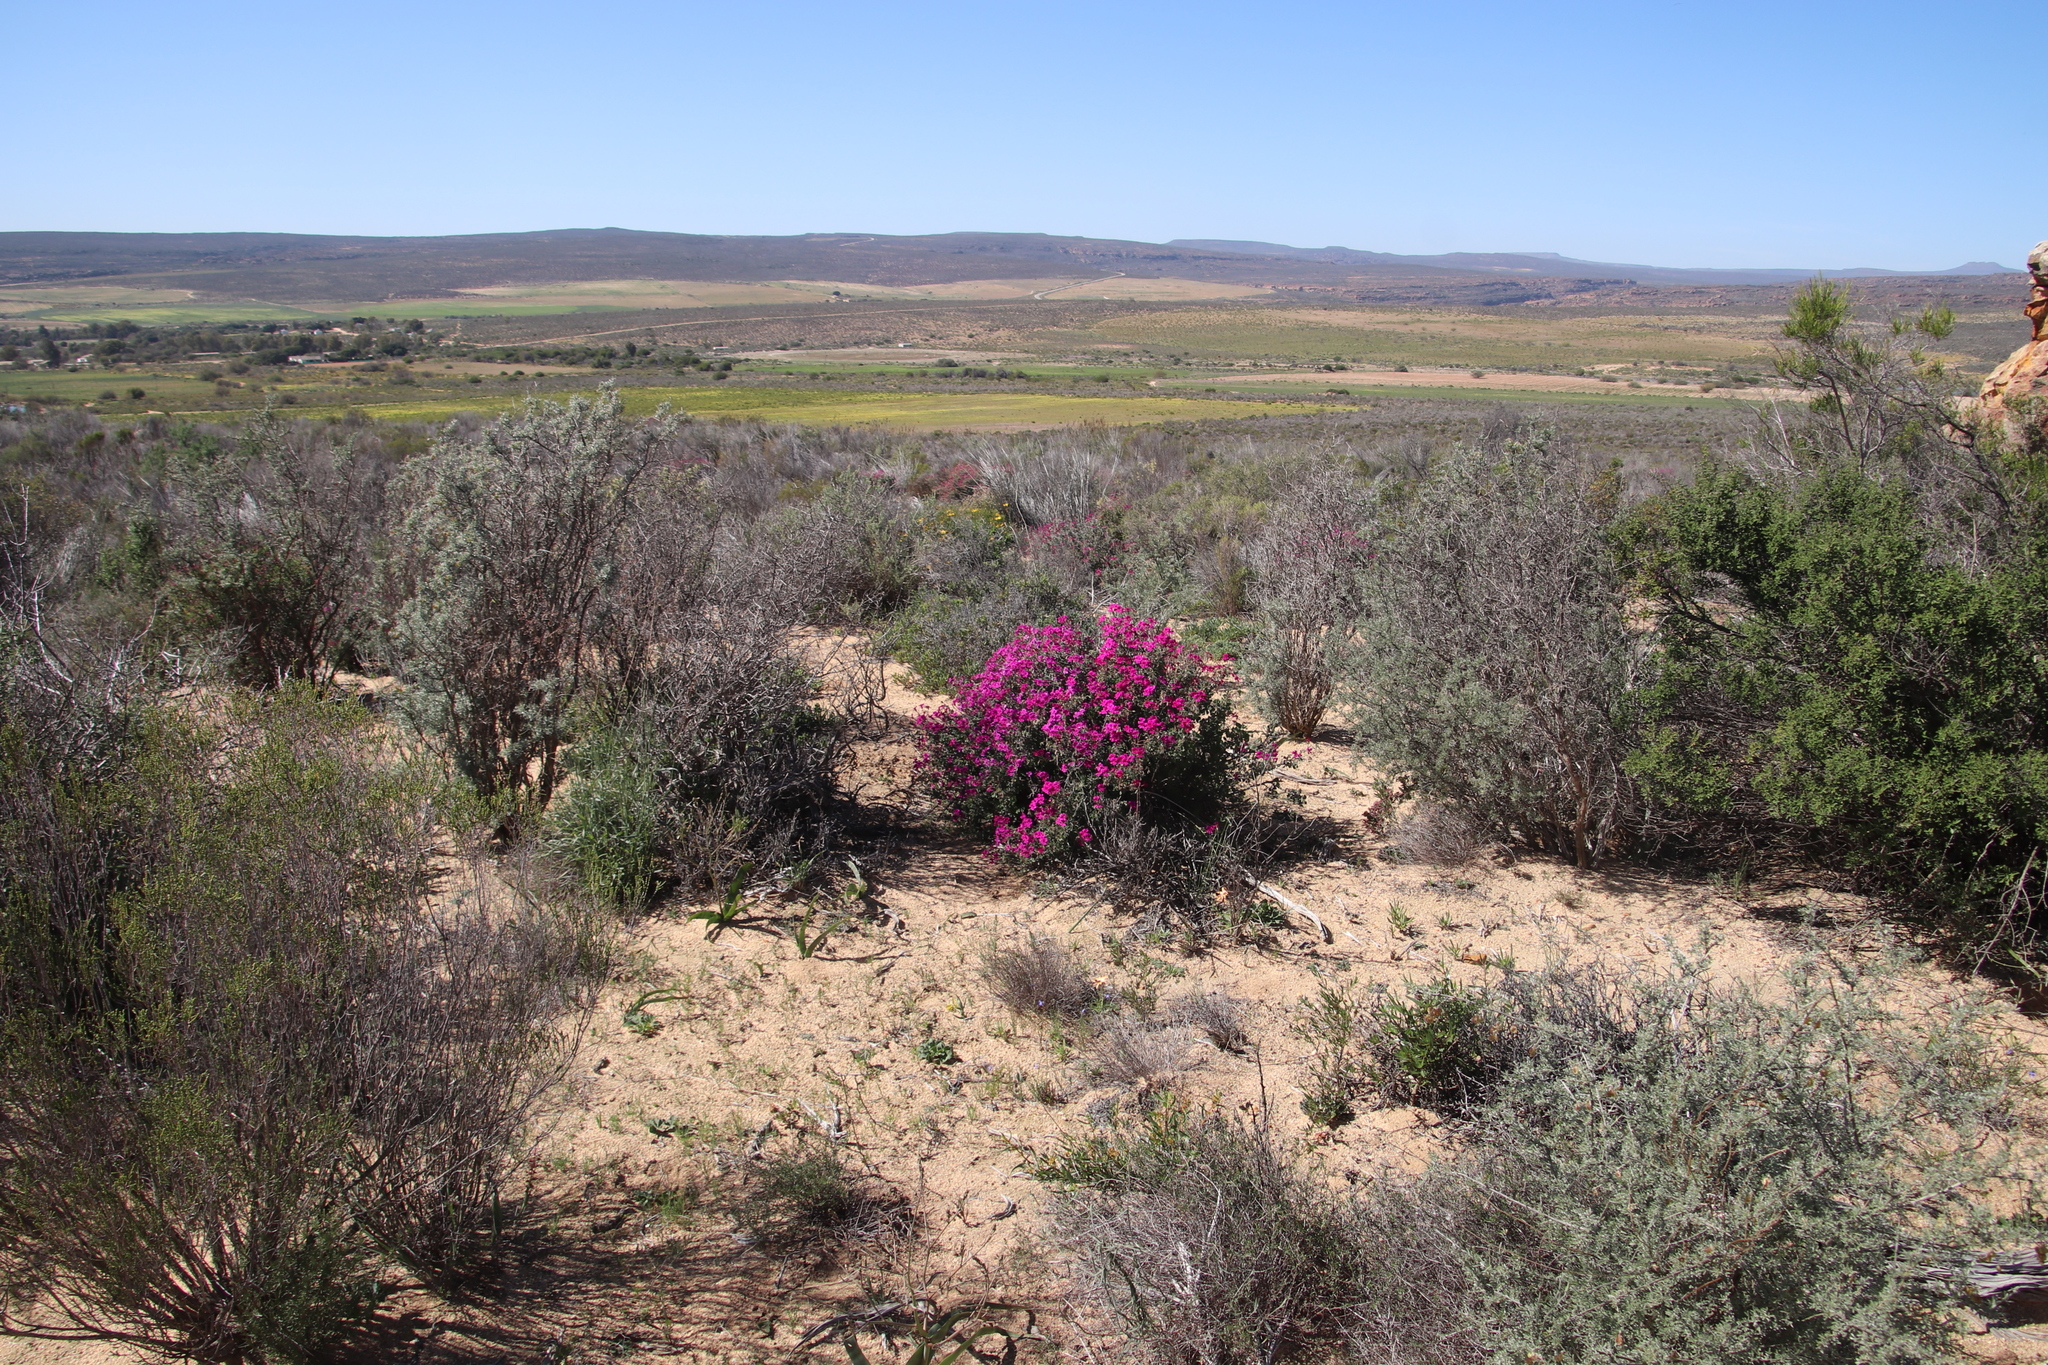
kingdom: Plantae
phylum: Tracheophyta
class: Magnoliopsida
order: Geraniales
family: Geraniaceae
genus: Pelargonium
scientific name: Pelargonium magenteum
